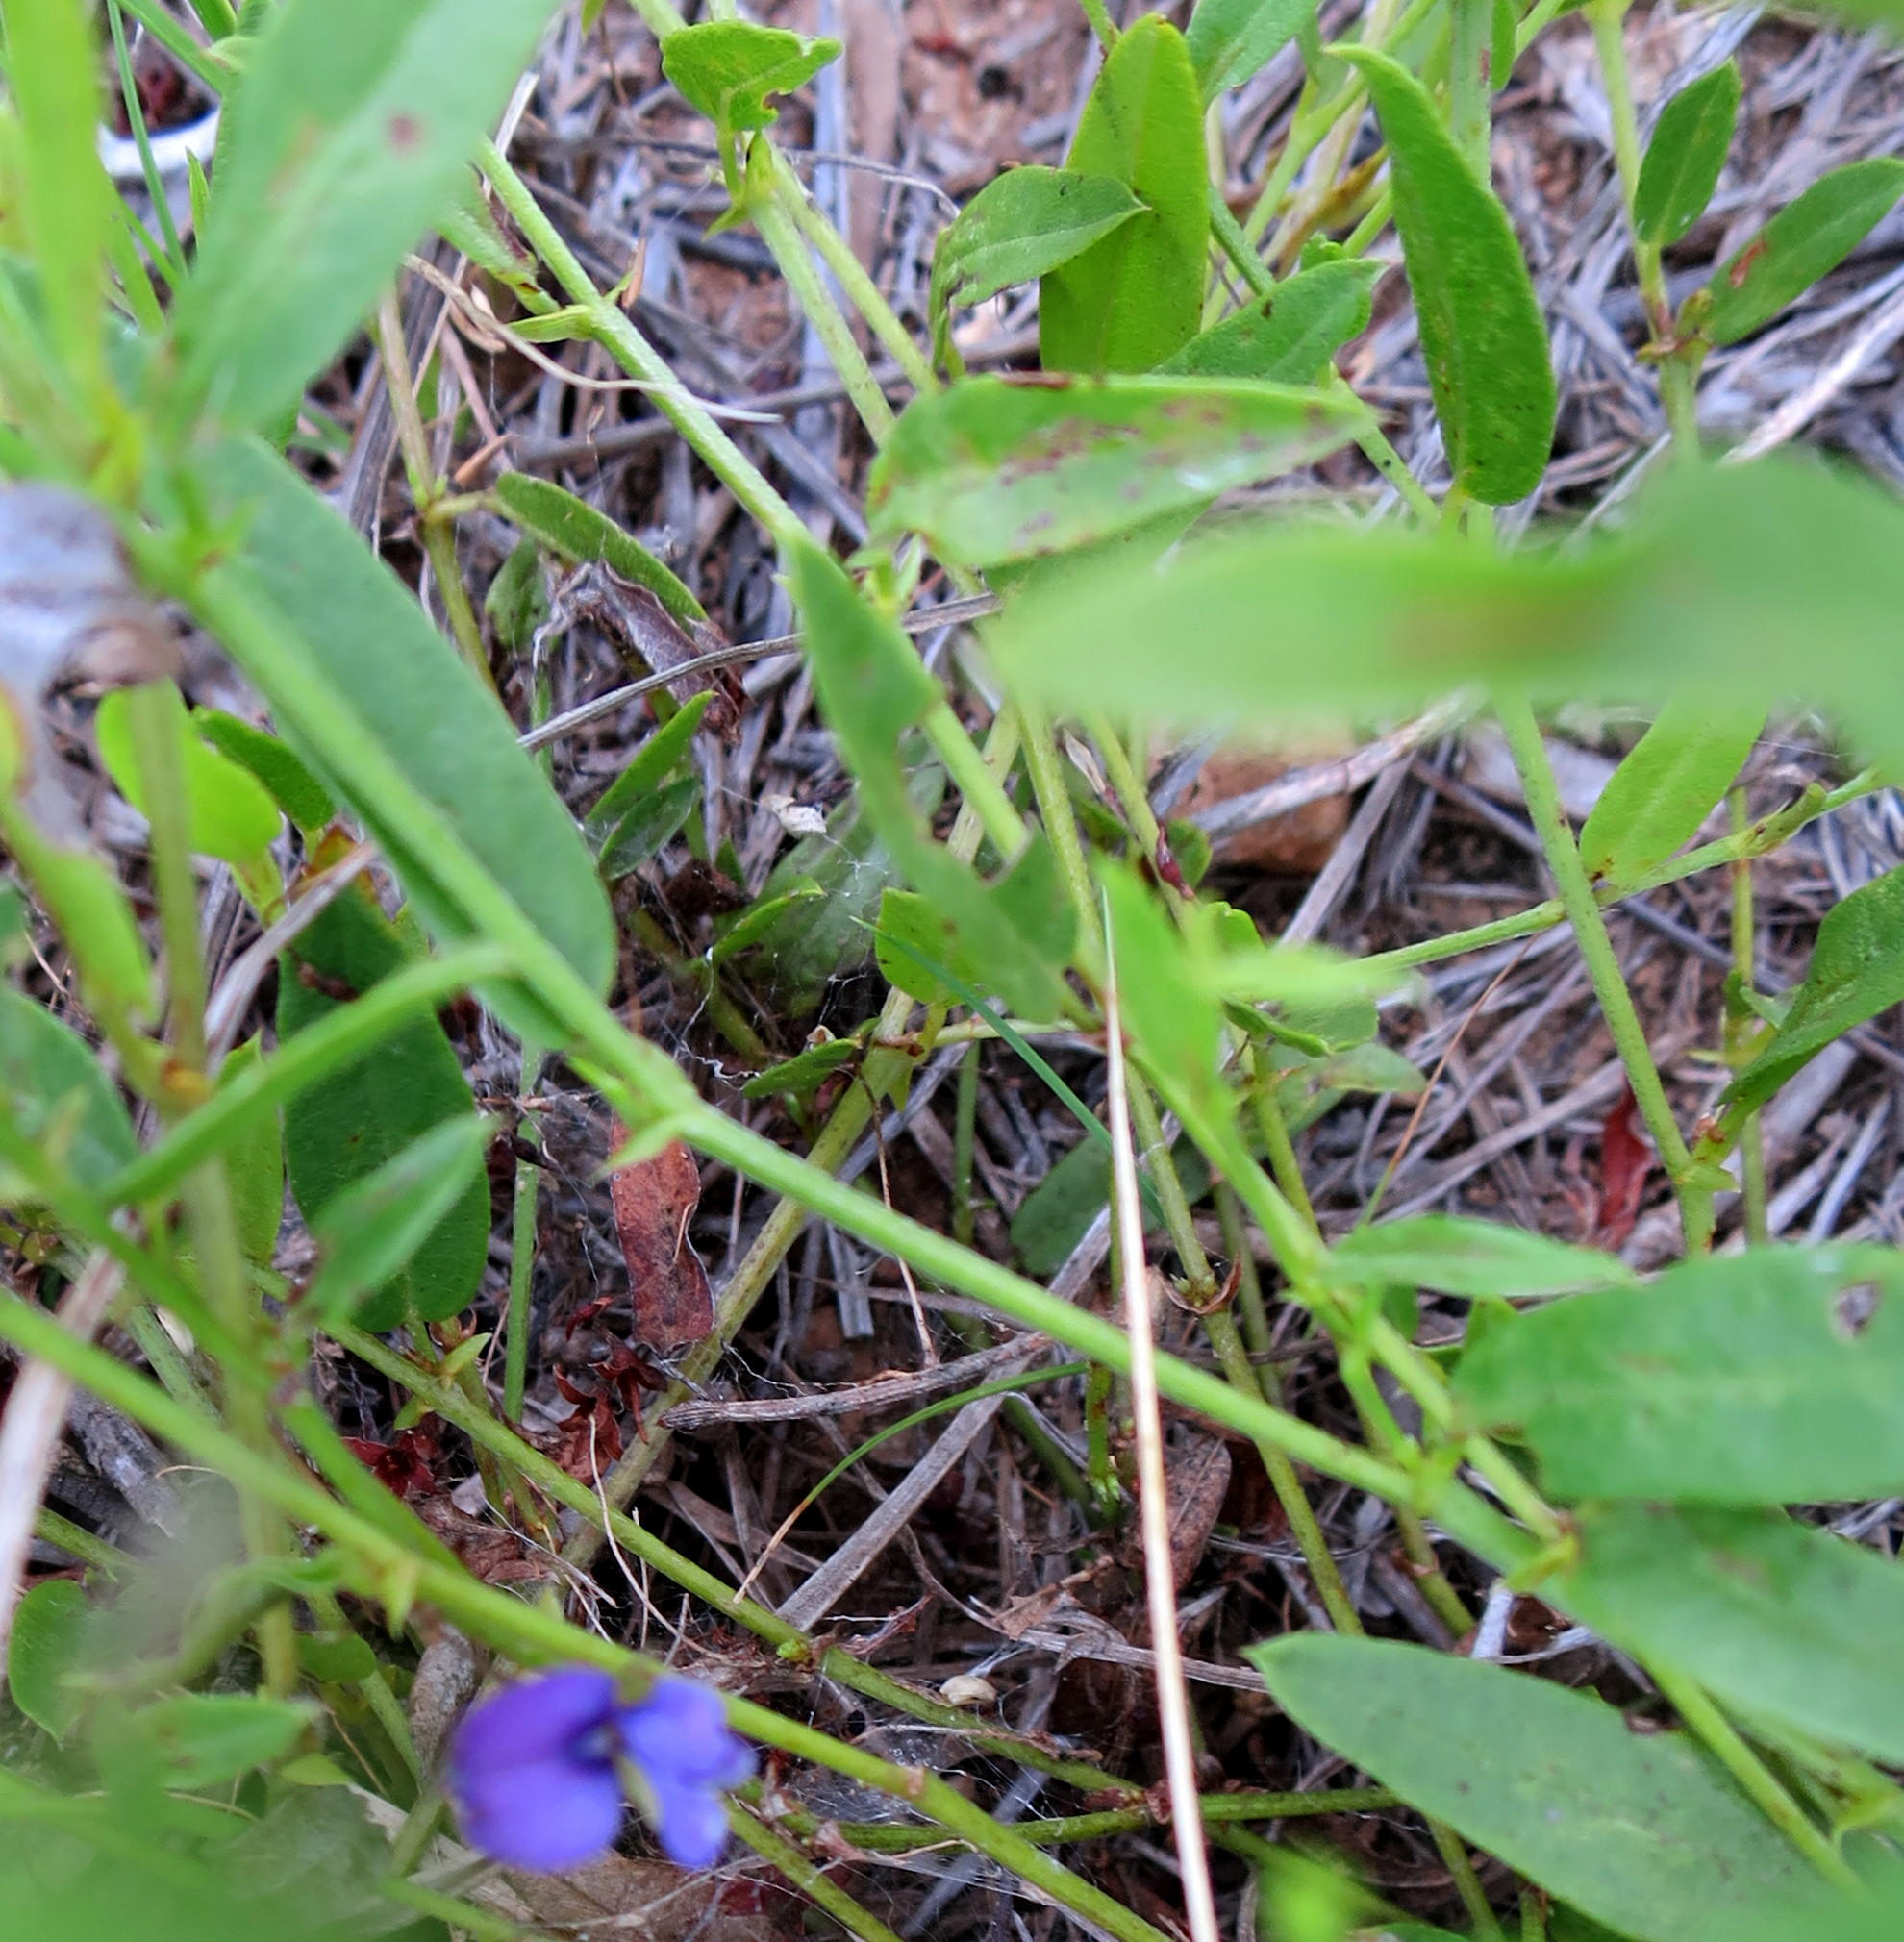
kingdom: Plantae
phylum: Tracheophyta
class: Magnoliopsida
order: Fabales
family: Fabaceae
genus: Psoralea
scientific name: Psoralea asarina
